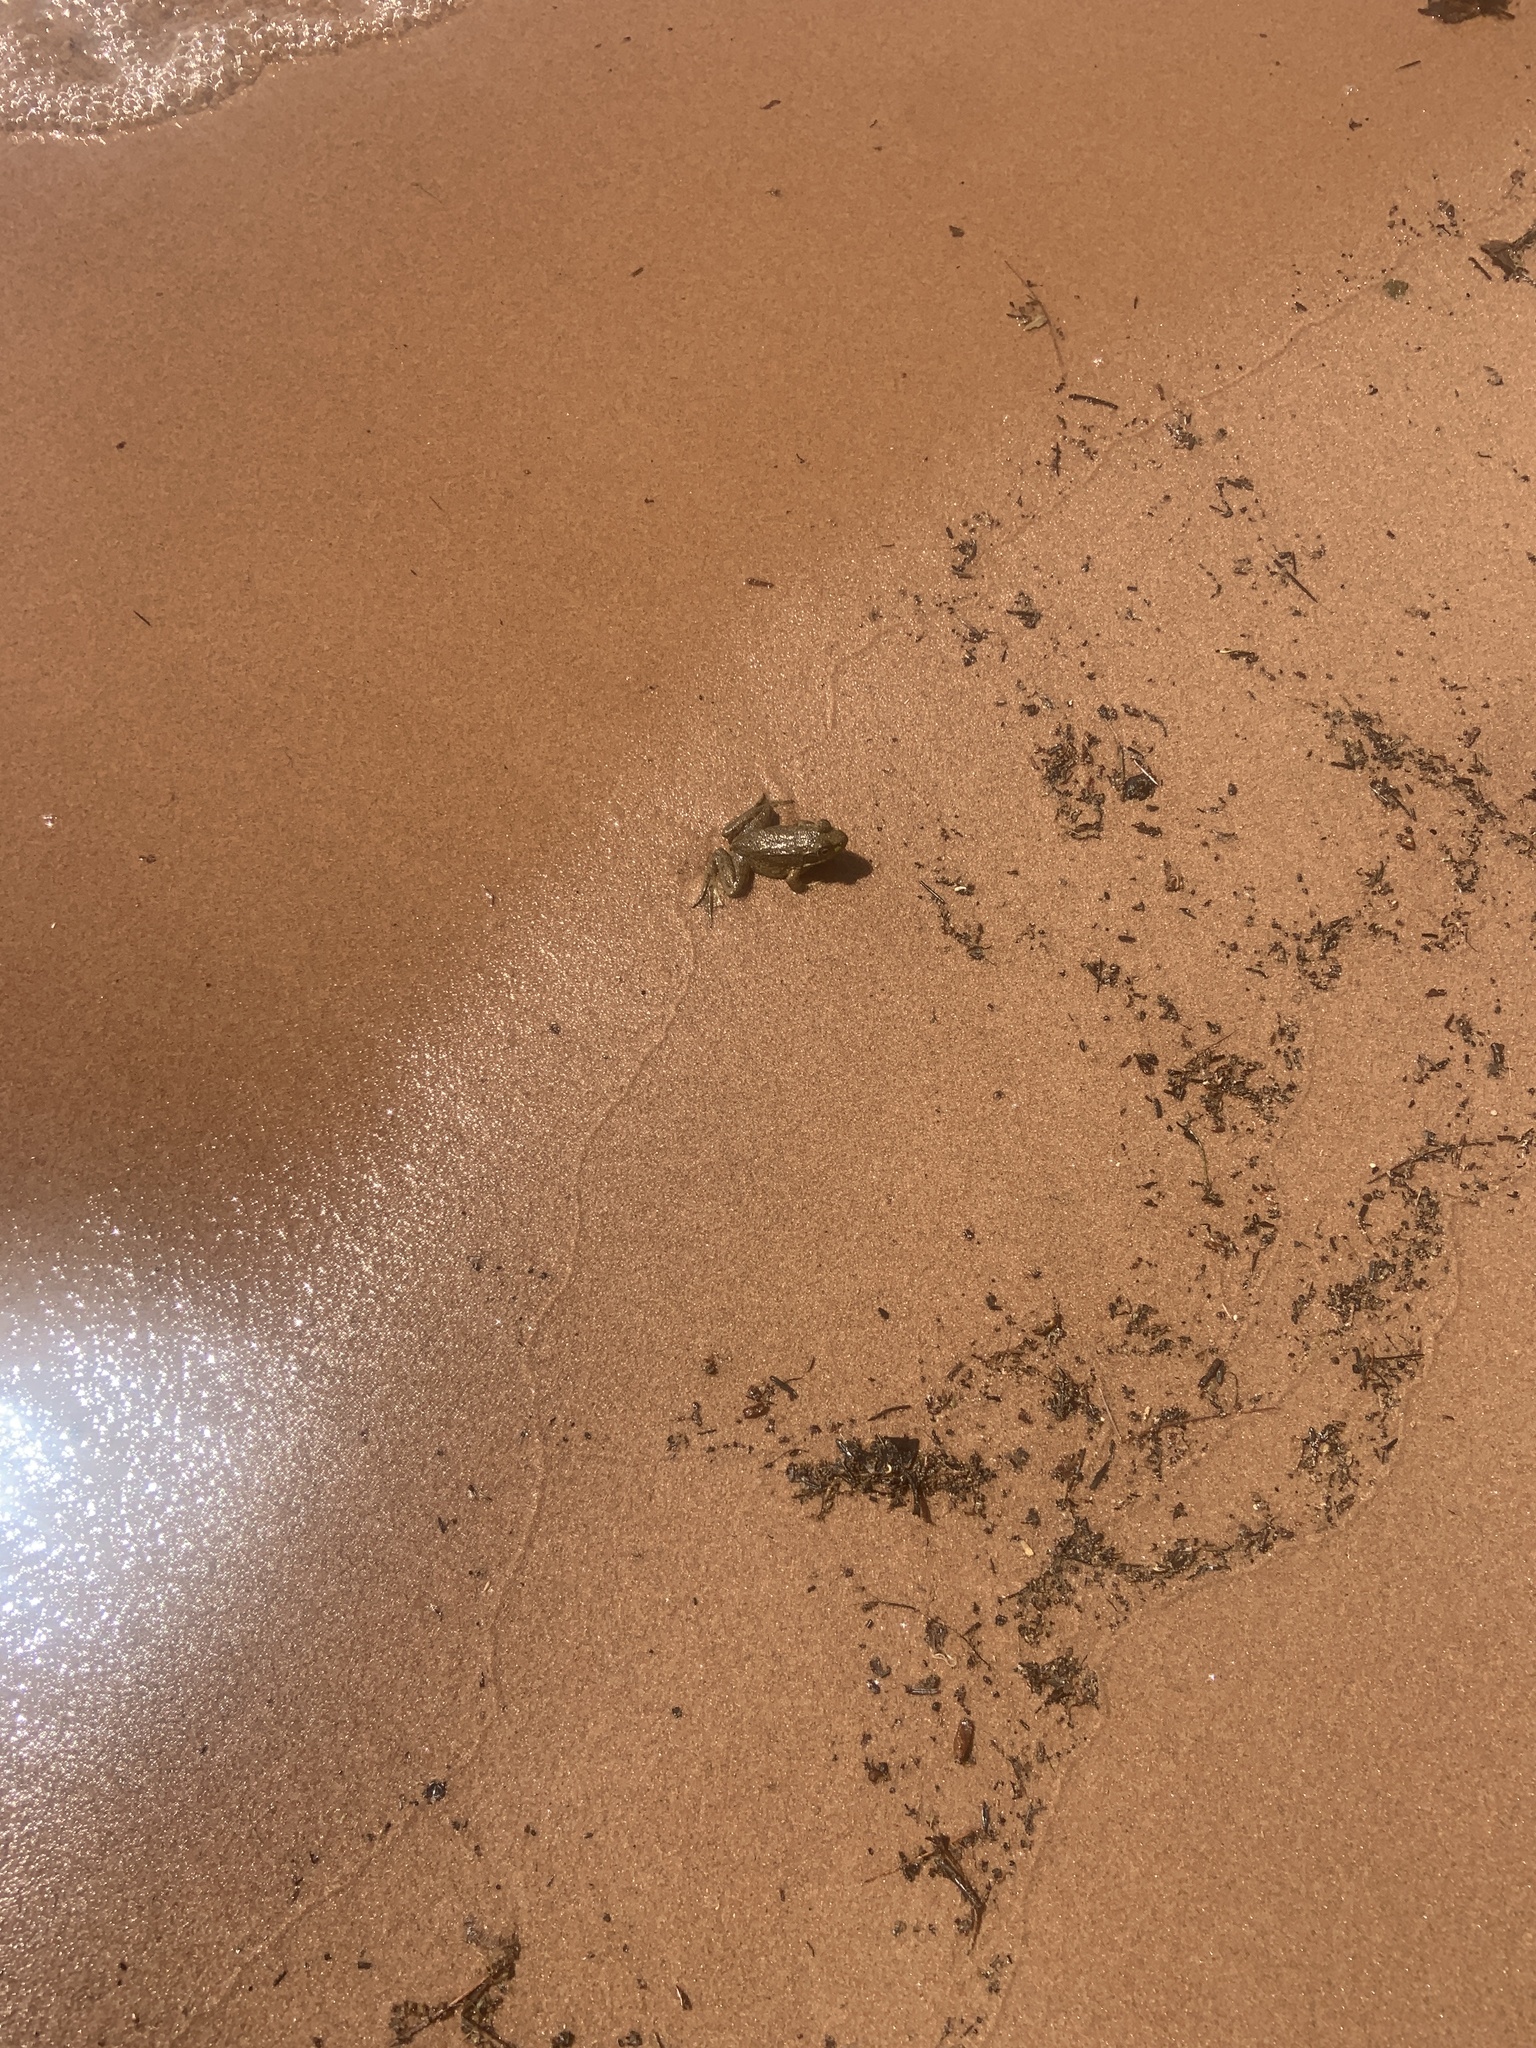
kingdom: Animalia
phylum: Chordata
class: Amphibia
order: Anura
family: Ranidae
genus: Lithobates
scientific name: Lithobates clamitans
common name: Green frog
